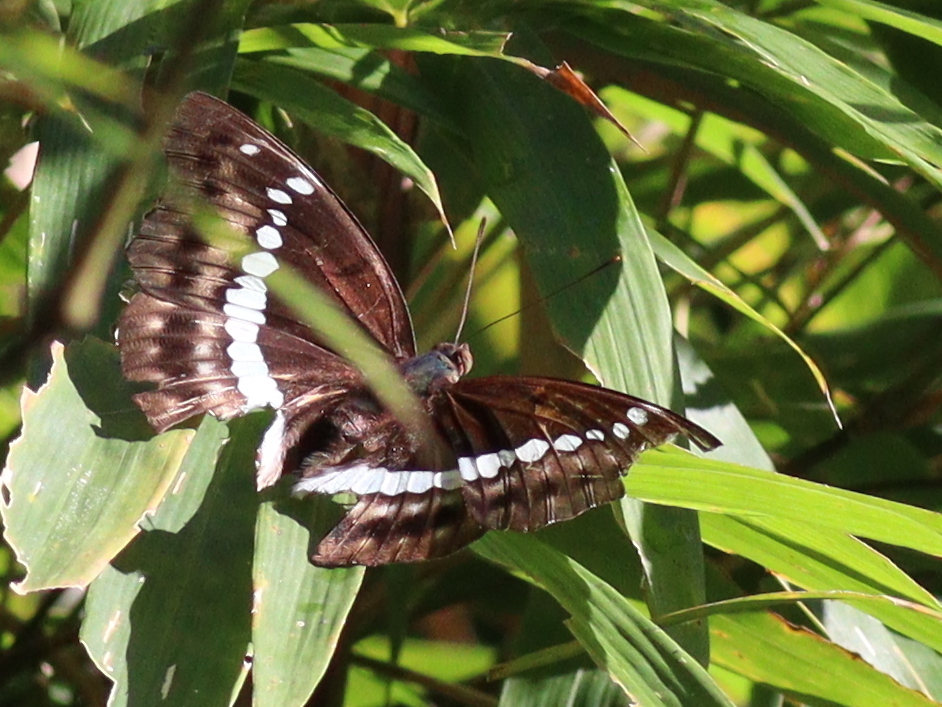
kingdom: Animalia
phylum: Arthropoda
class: Insecta
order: Lepidoptera
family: Nymphalidae
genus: Euthalia
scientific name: Euthalia Bassarona teuta
